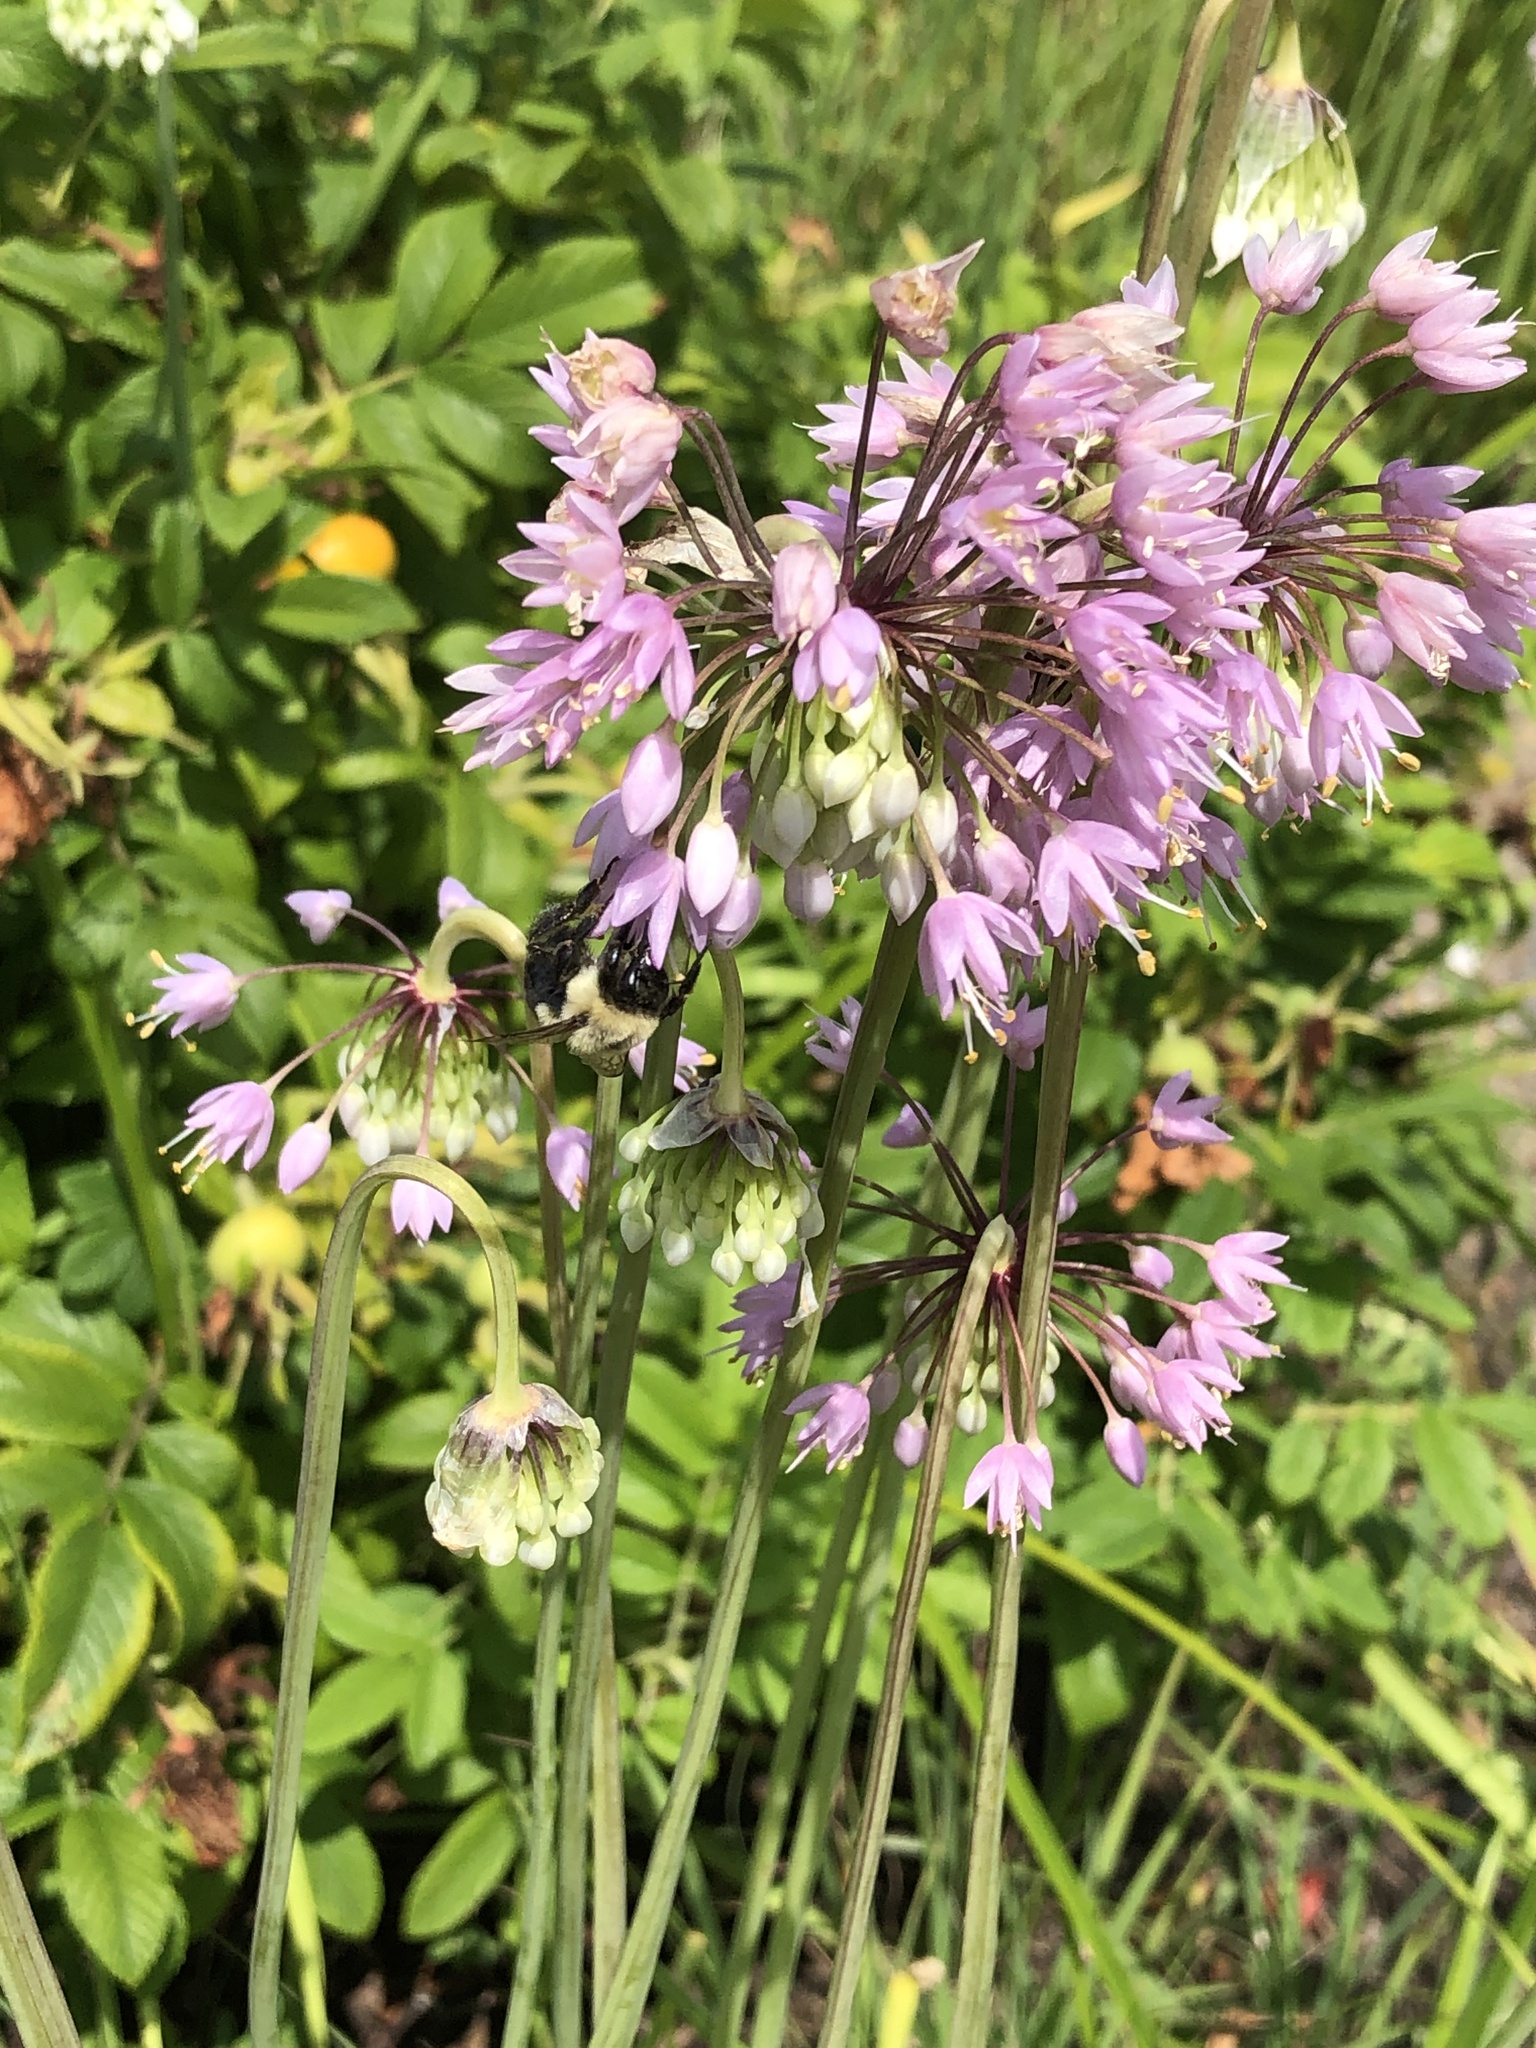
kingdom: Animalia
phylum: Arthropoda
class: Insecta
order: Hymenoptera
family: Apidae
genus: Bombus
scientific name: Bombus impatiens
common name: Common eastern bumble bee
